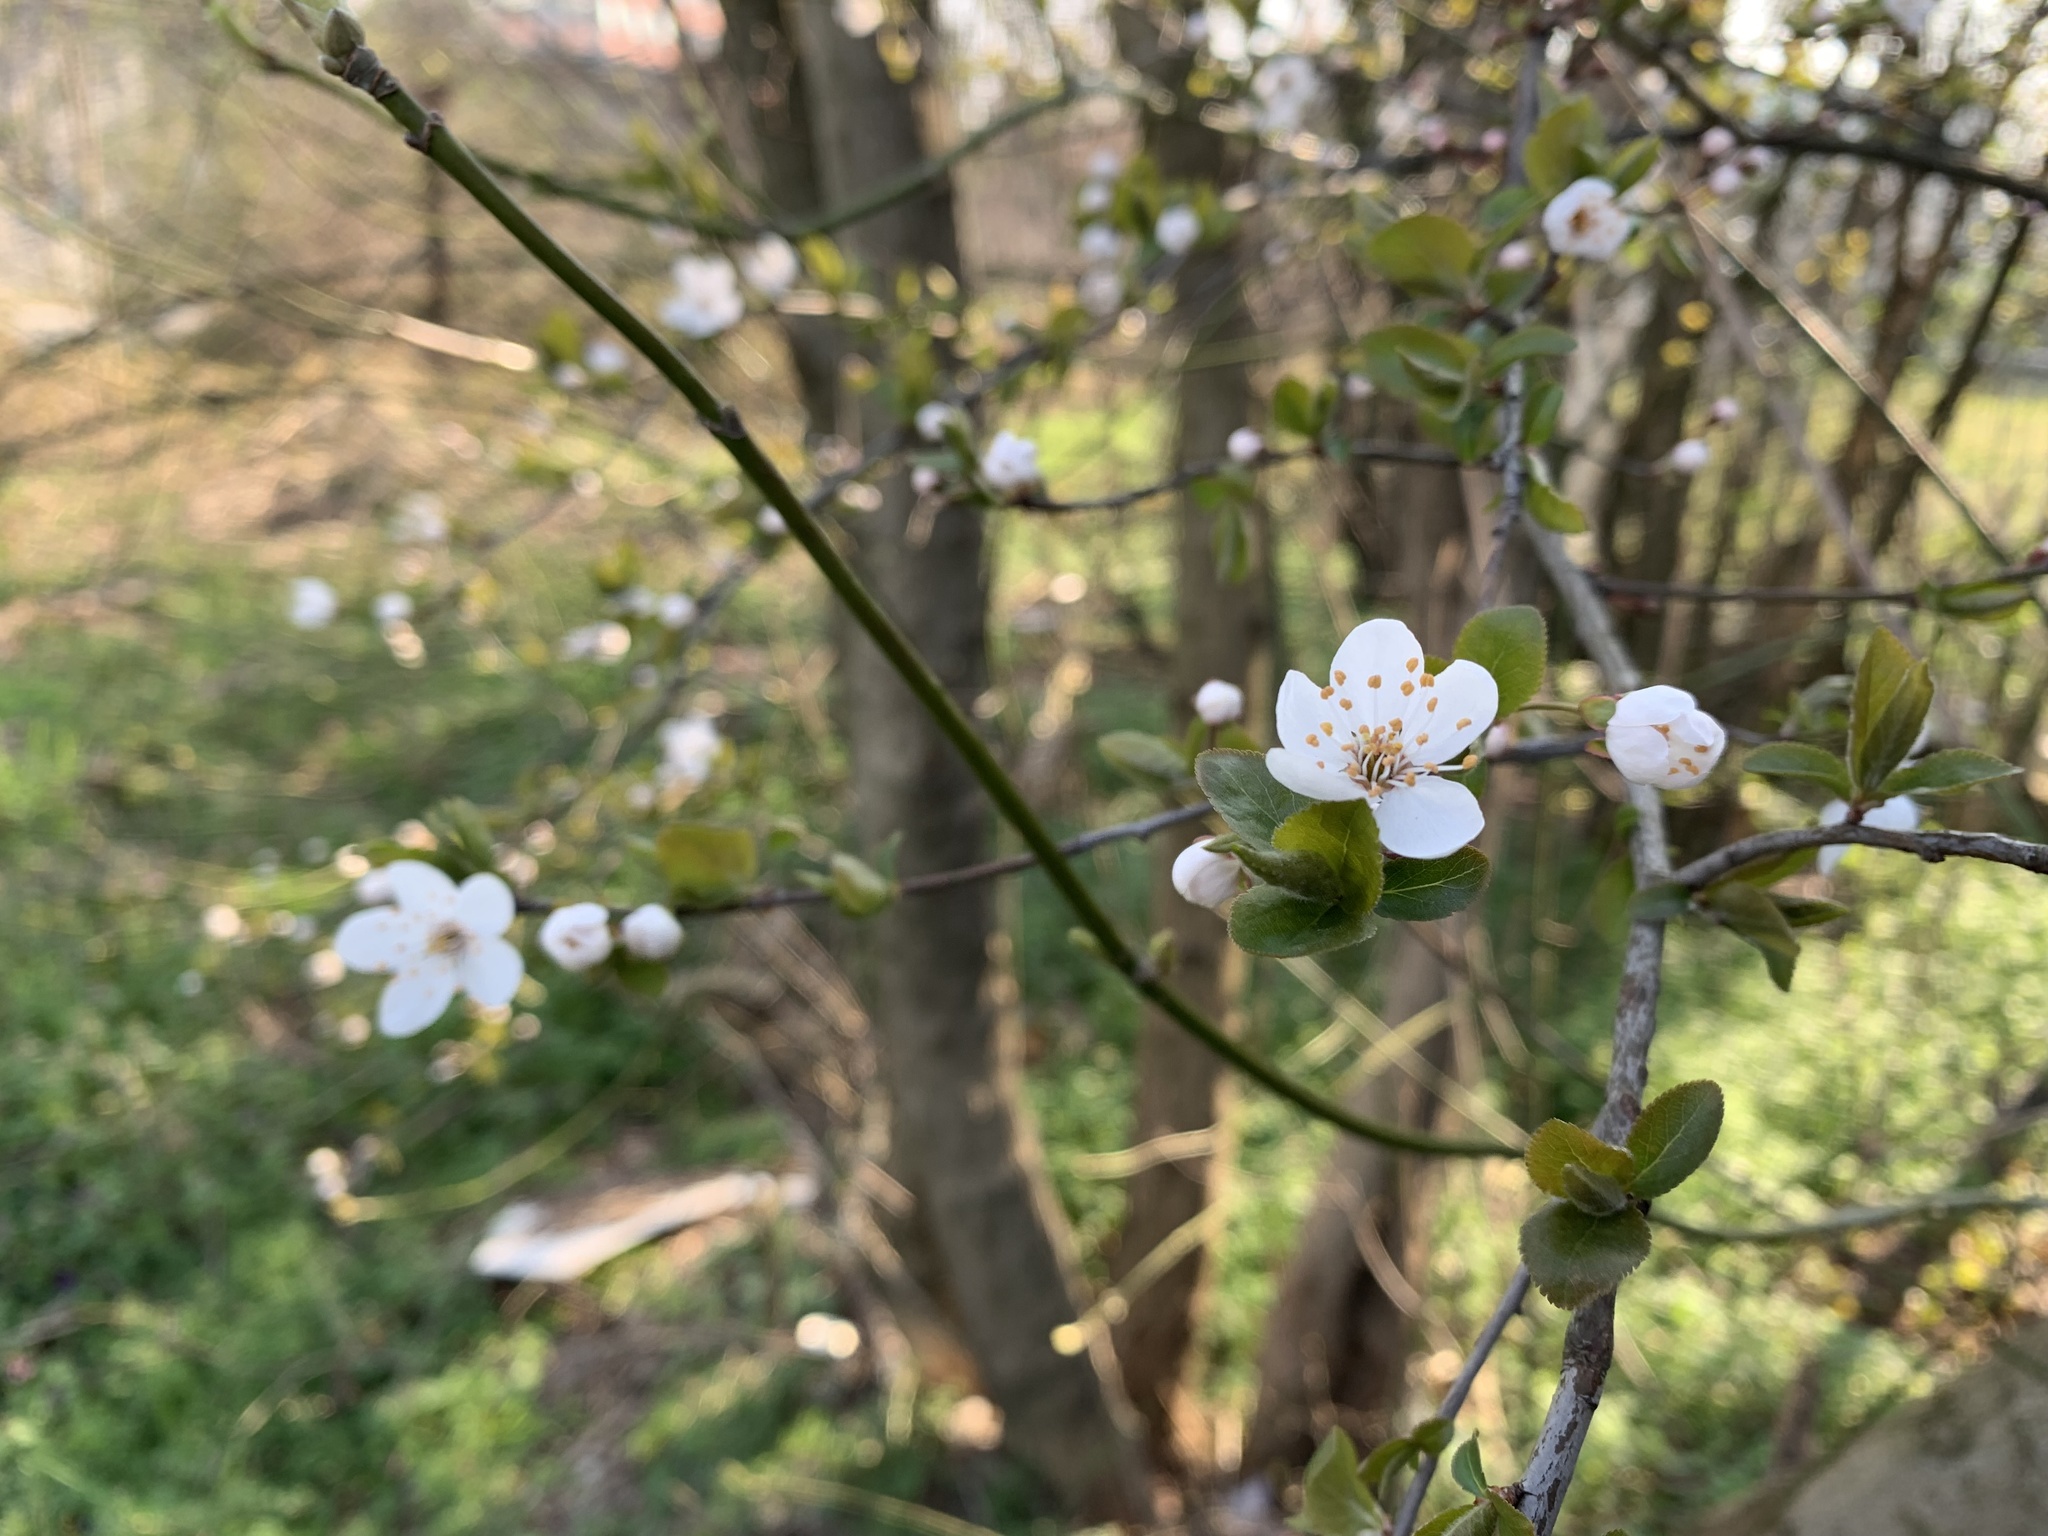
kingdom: Plantae
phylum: Tracheophyta
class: Magnoliopsida
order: Rosales
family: Rosaceae
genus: Prunus
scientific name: Prunus cerasifera
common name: Cherry plum
